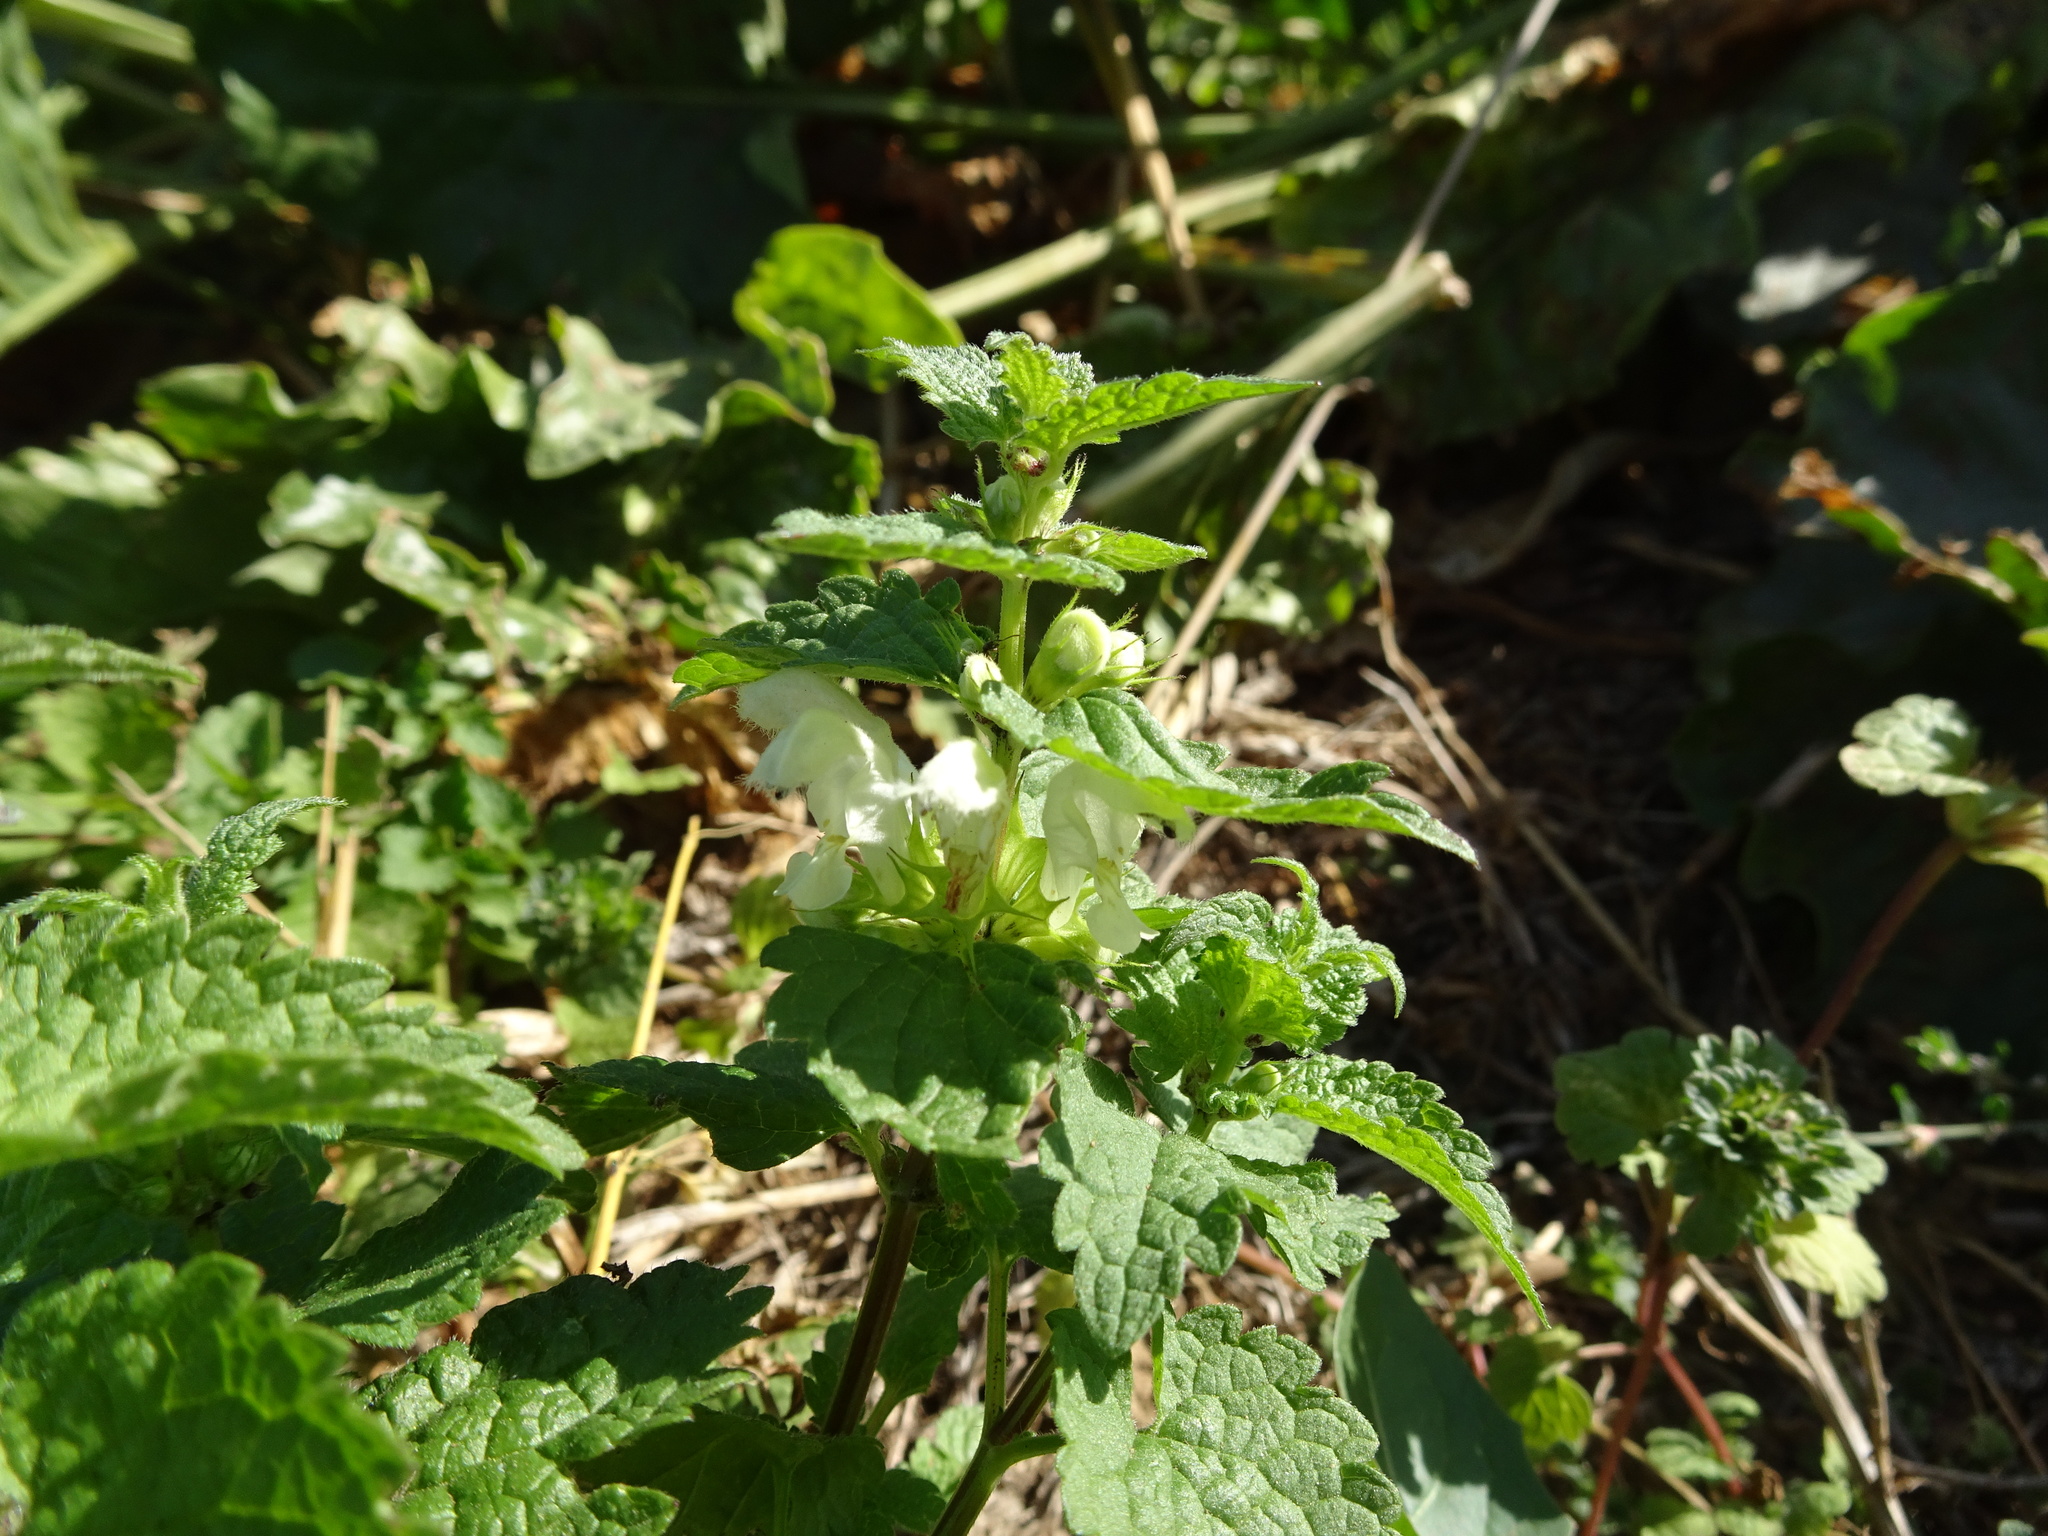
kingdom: Plantae
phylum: Tracheophyta
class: Magnoliopsida
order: Lamiales
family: Lamiaceae
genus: Lamium
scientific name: Lamium album
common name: White dead-nettle
